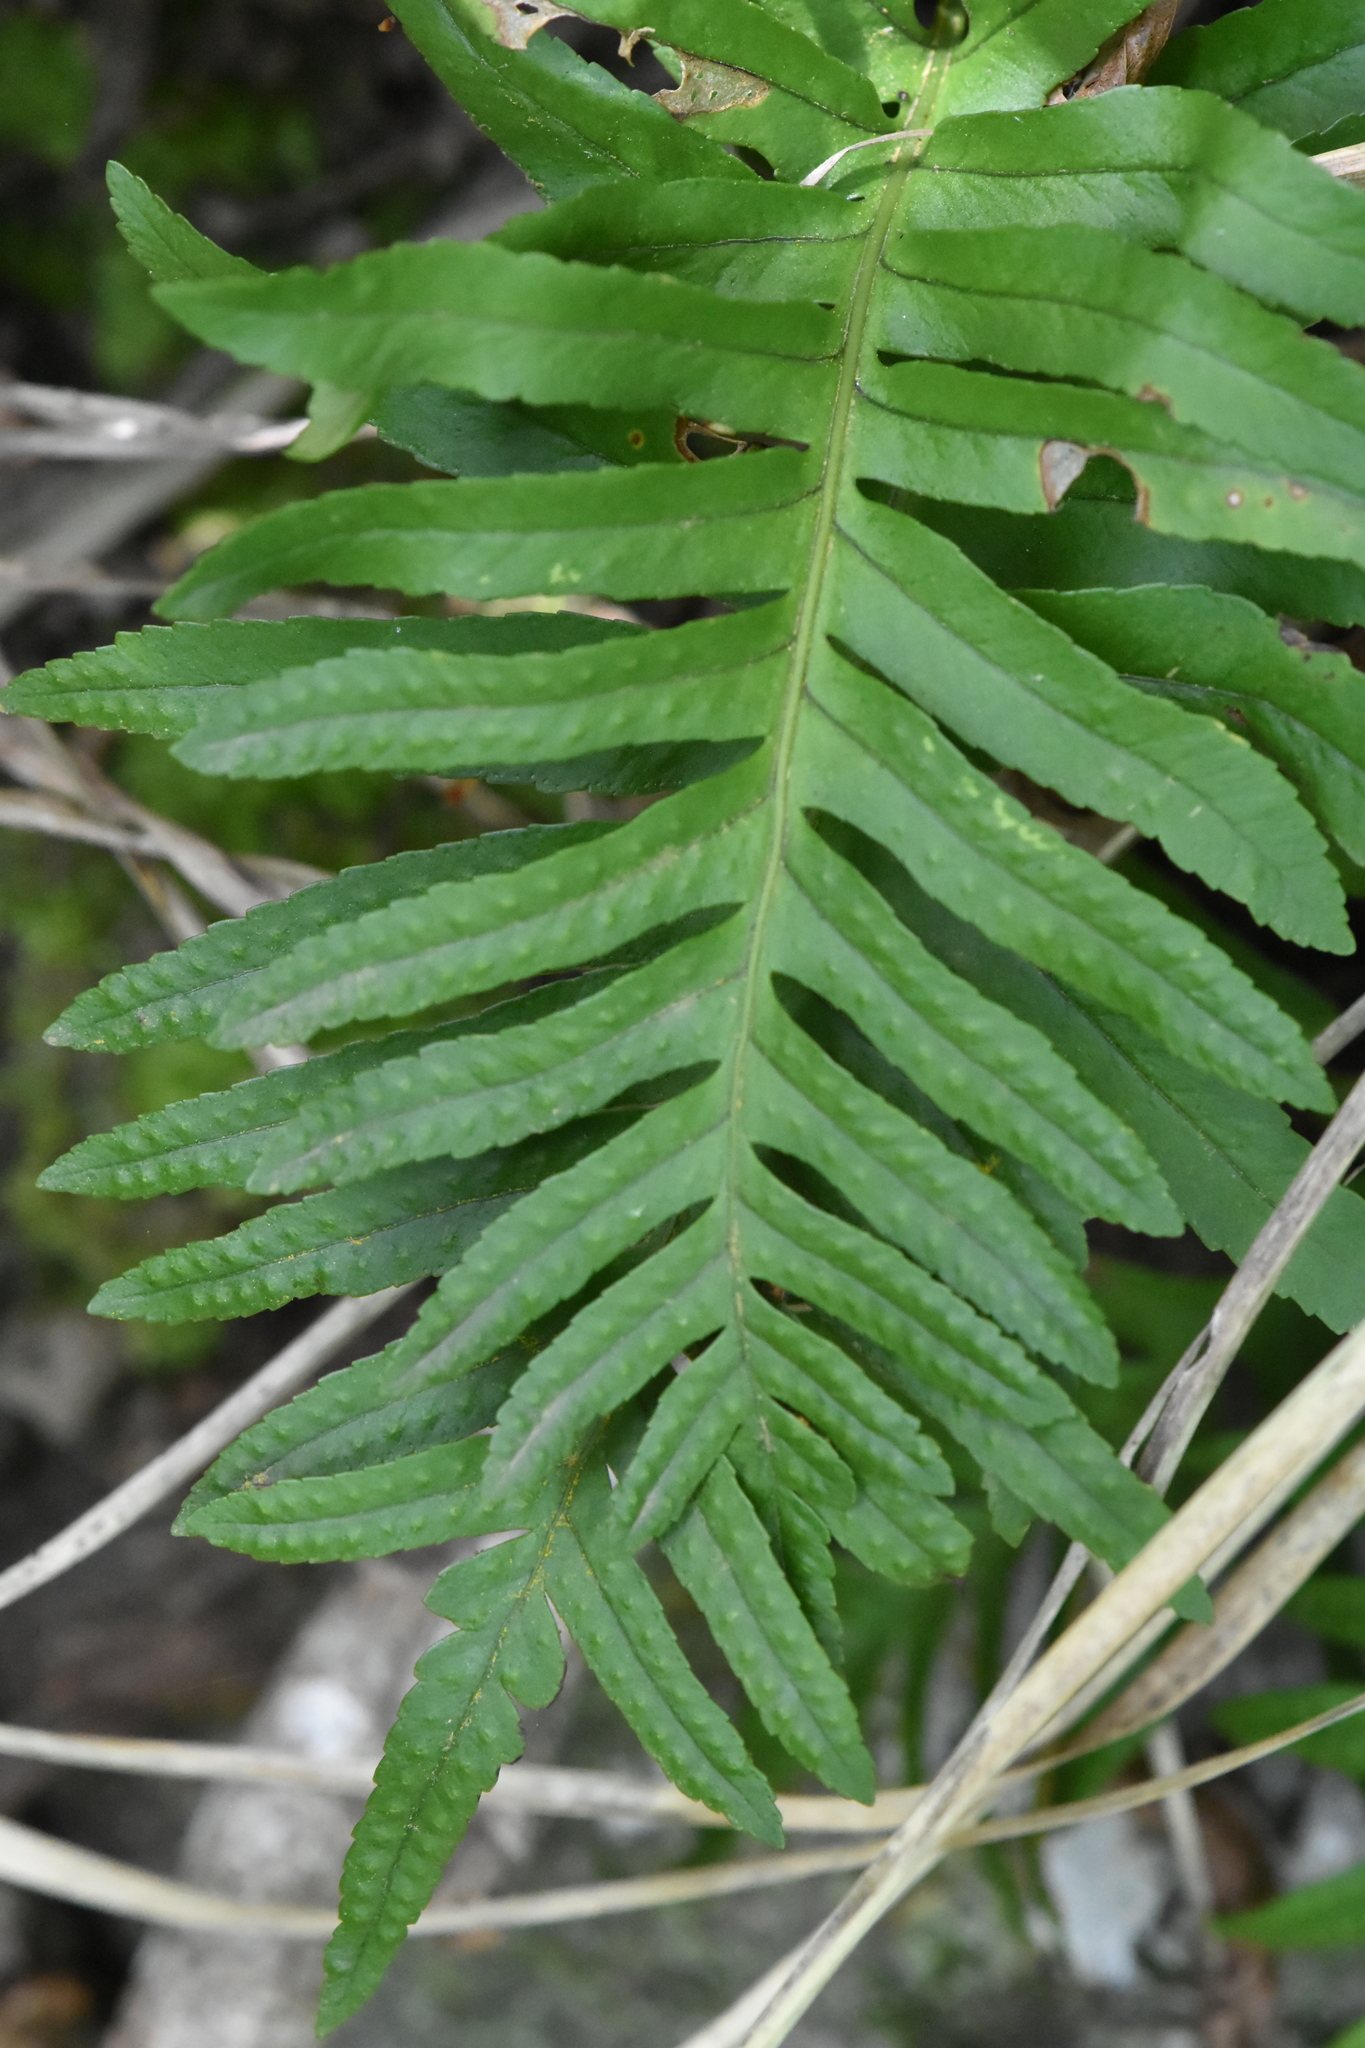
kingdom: Plantae
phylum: Tracheophyta
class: Polypodiopsida
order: Polypodiales
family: Polypodiaceae
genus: Polypodium
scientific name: Polypodium cambricum
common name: Southern polypody
